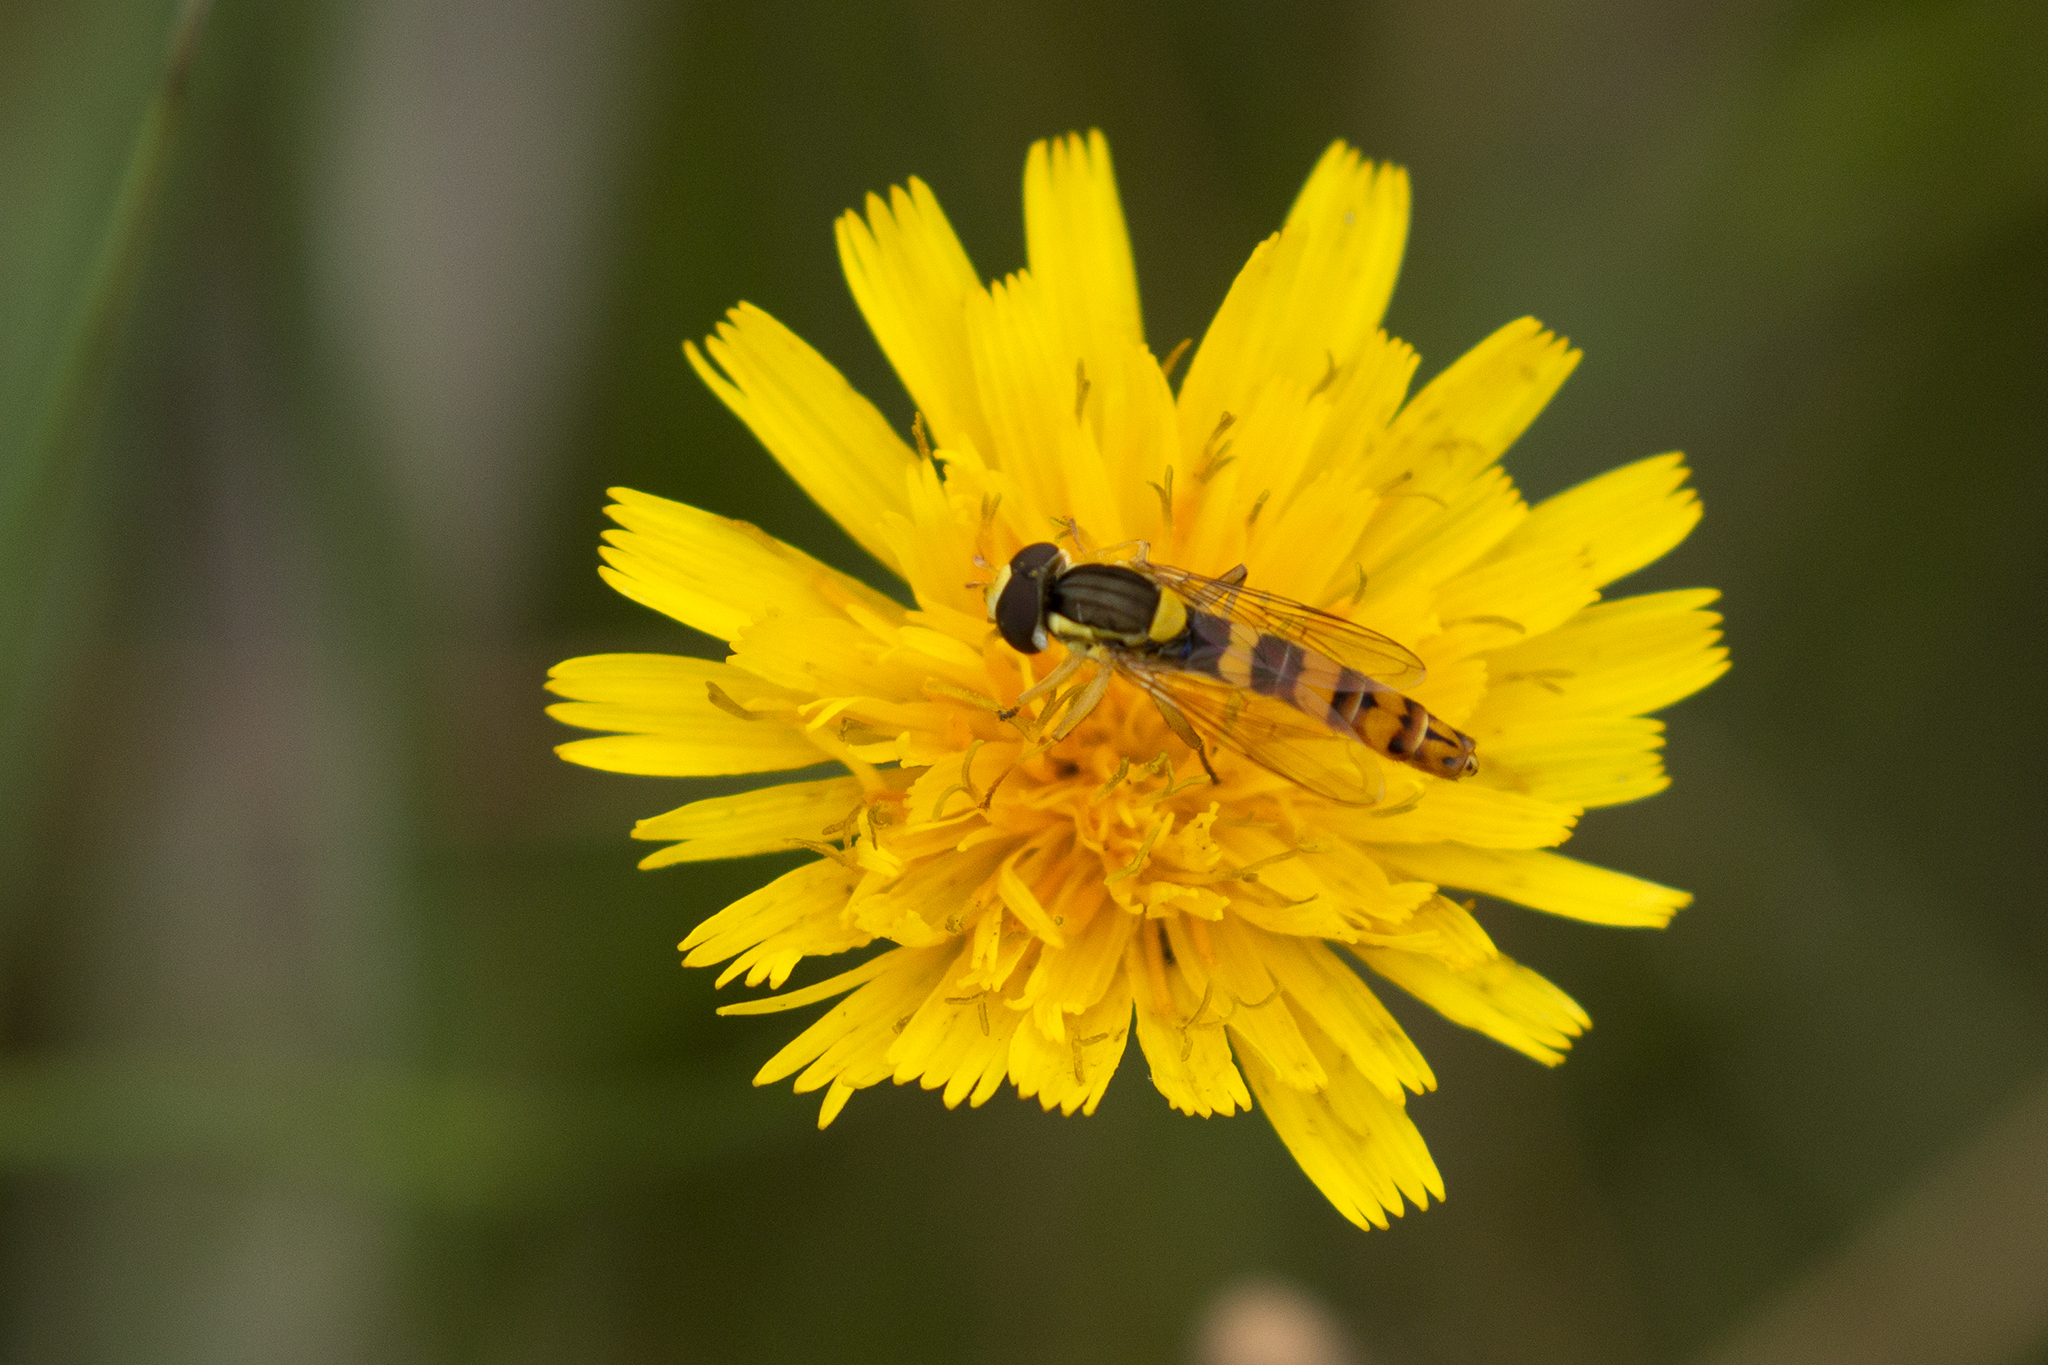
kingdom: Animalia
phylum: Arthropoda
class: Insecta
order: Diptera
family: Syrphidae
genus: Sphaerophoria
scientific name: Sphaerophoria scripta
